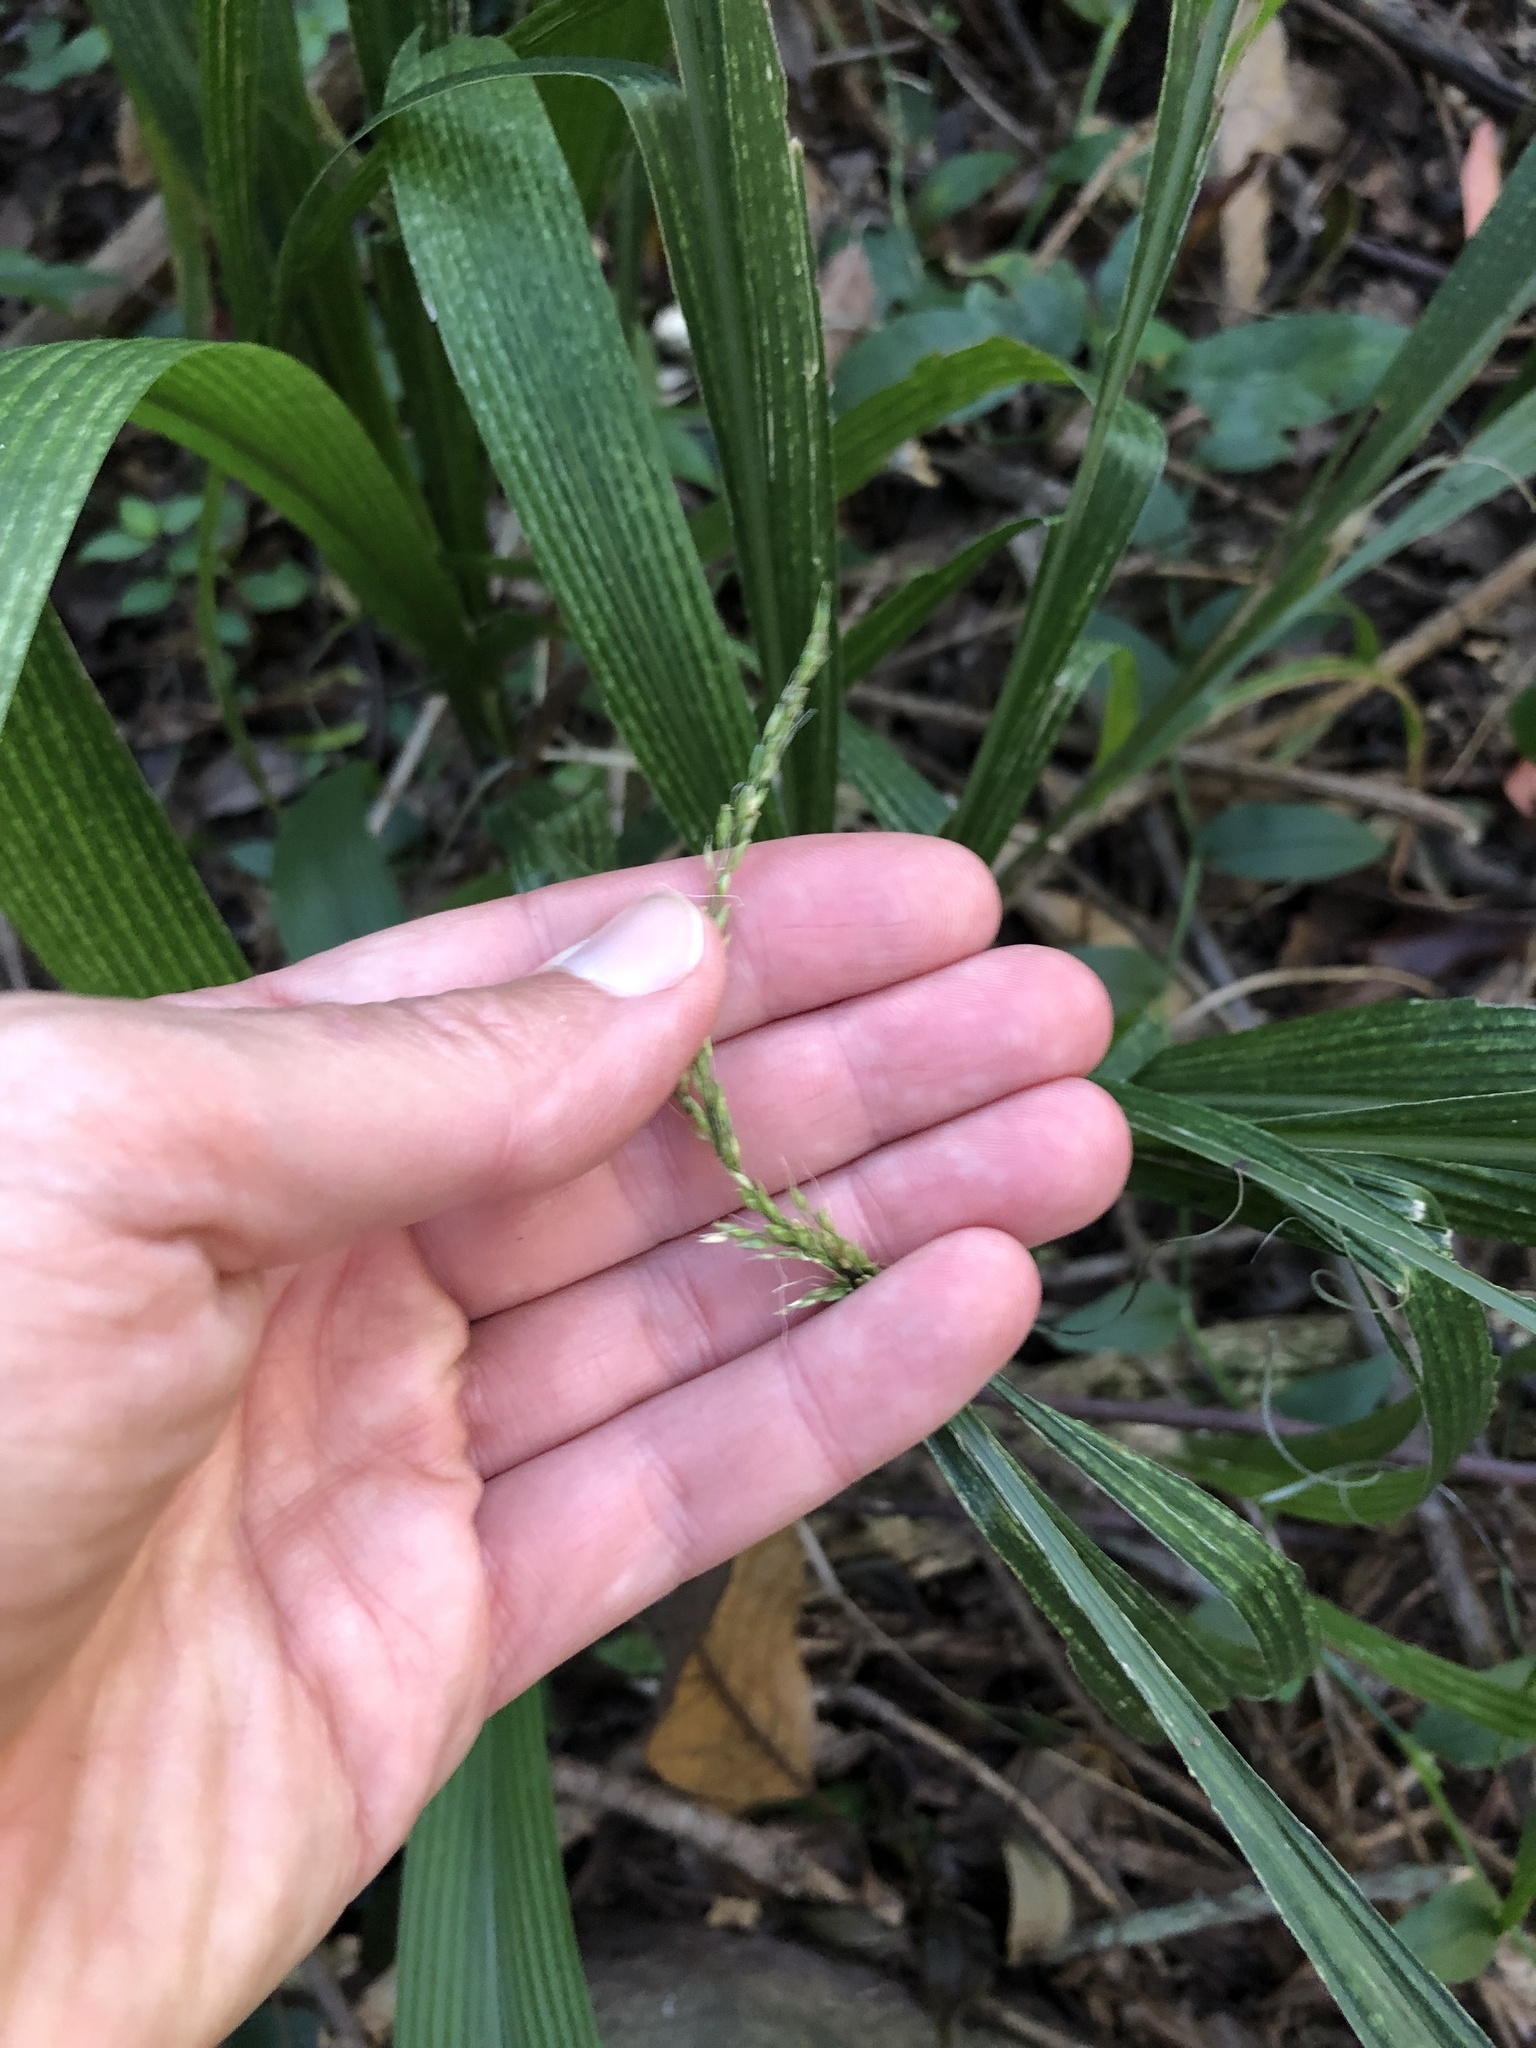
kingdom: Plantae
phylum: Tracheophyta
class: Liliopsida
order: Poales
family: Poaceae
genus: Setaria
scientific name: Setaria megaphylla
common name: Bigleaf bristlegrass
